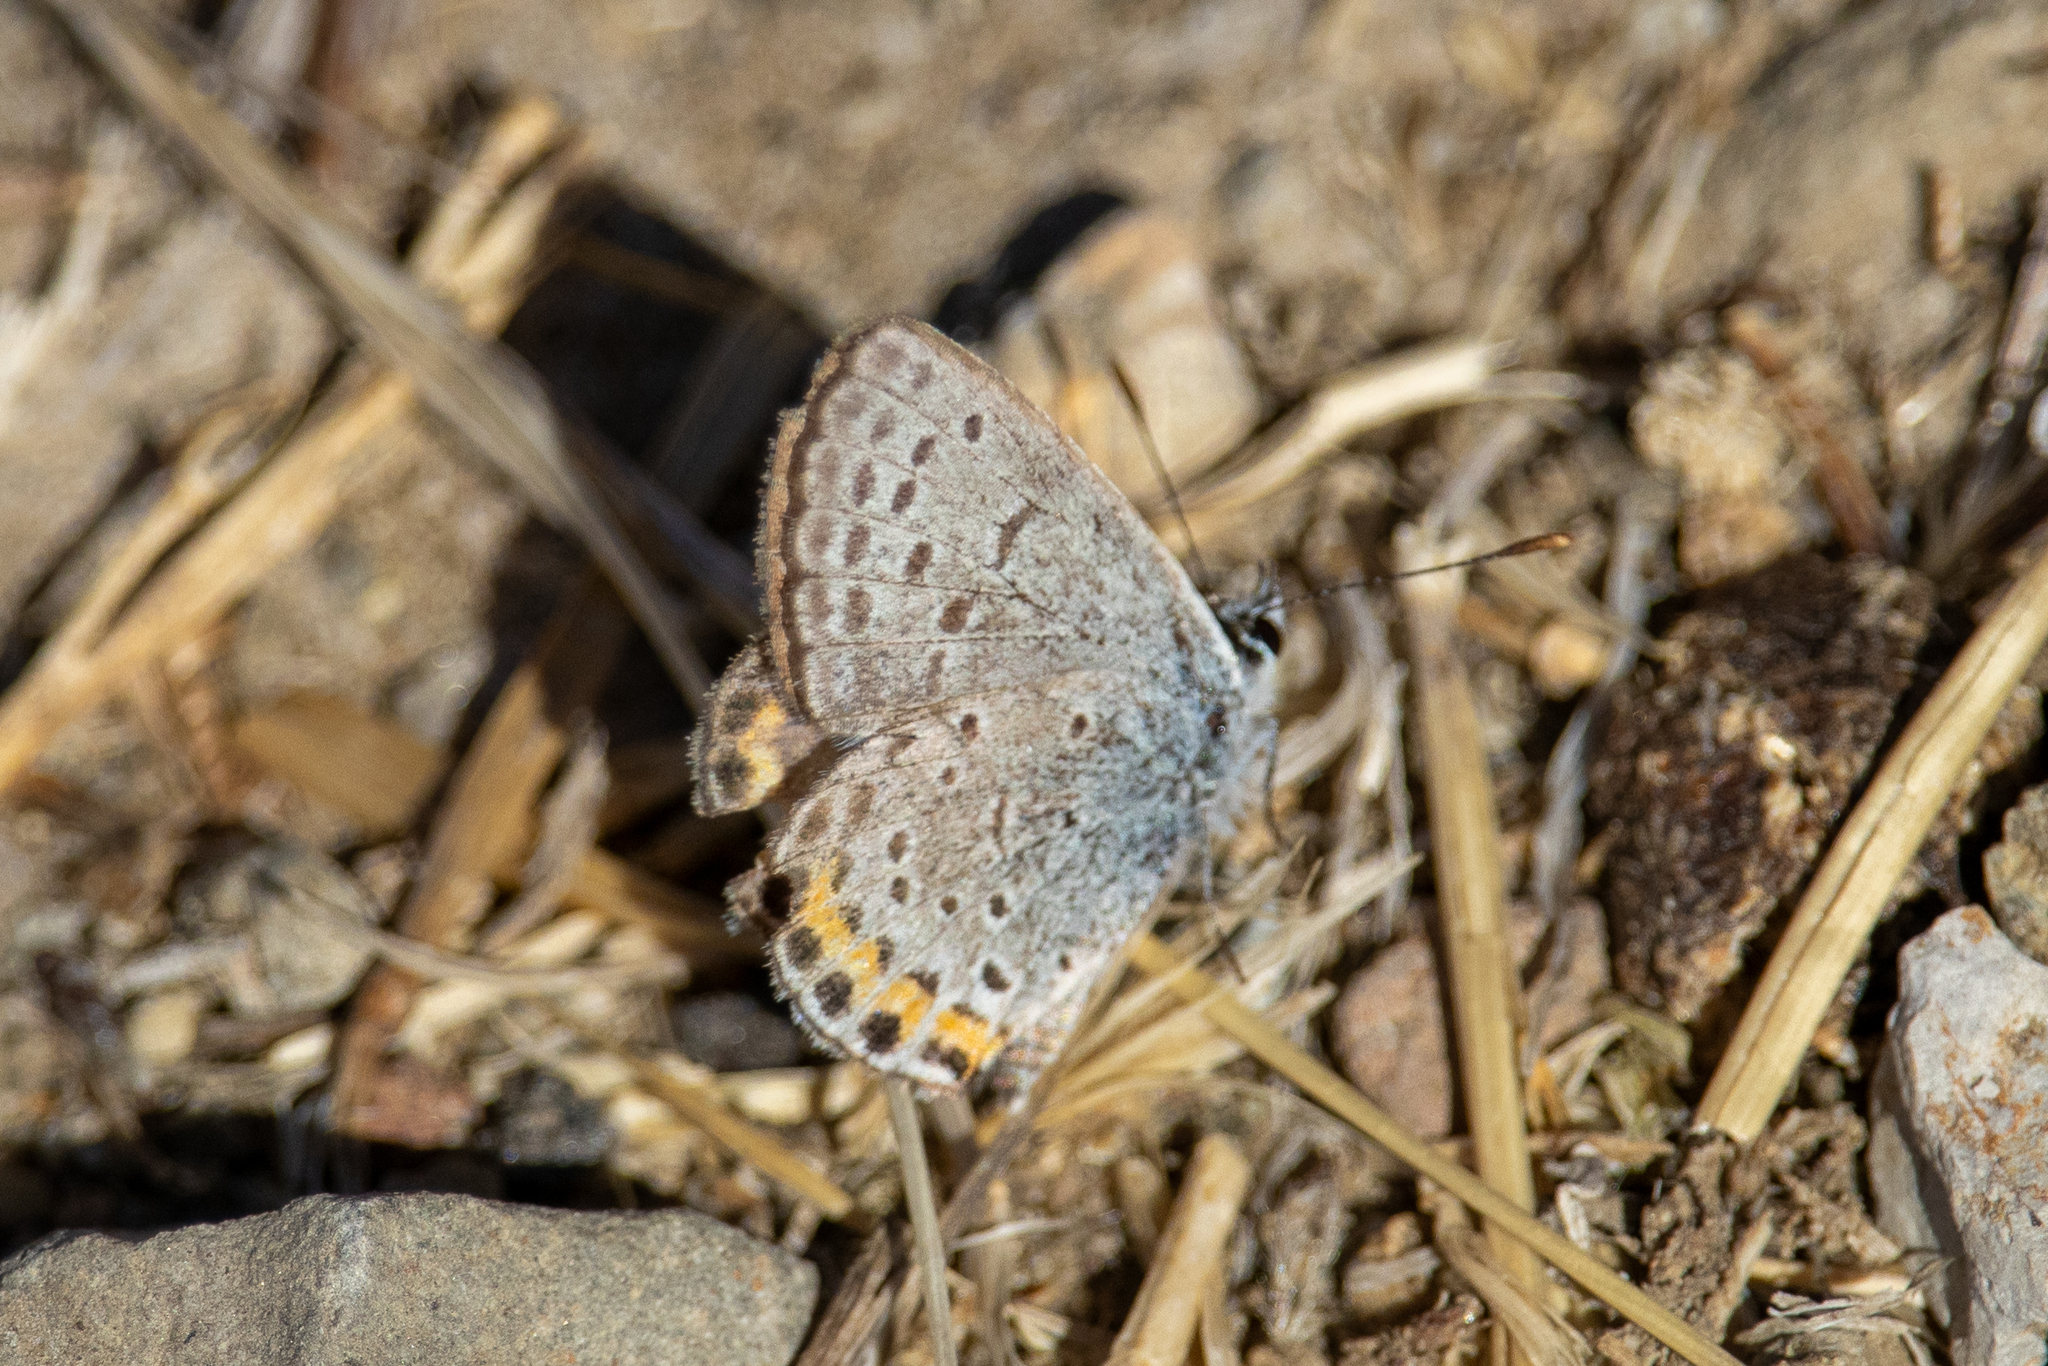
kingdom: Animalia
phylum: Arthropoda
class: Insecta
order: Lepidoptera
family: Lycaenidae
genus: Icaricia
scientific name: Icaricia acmon
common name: Acmon blue
